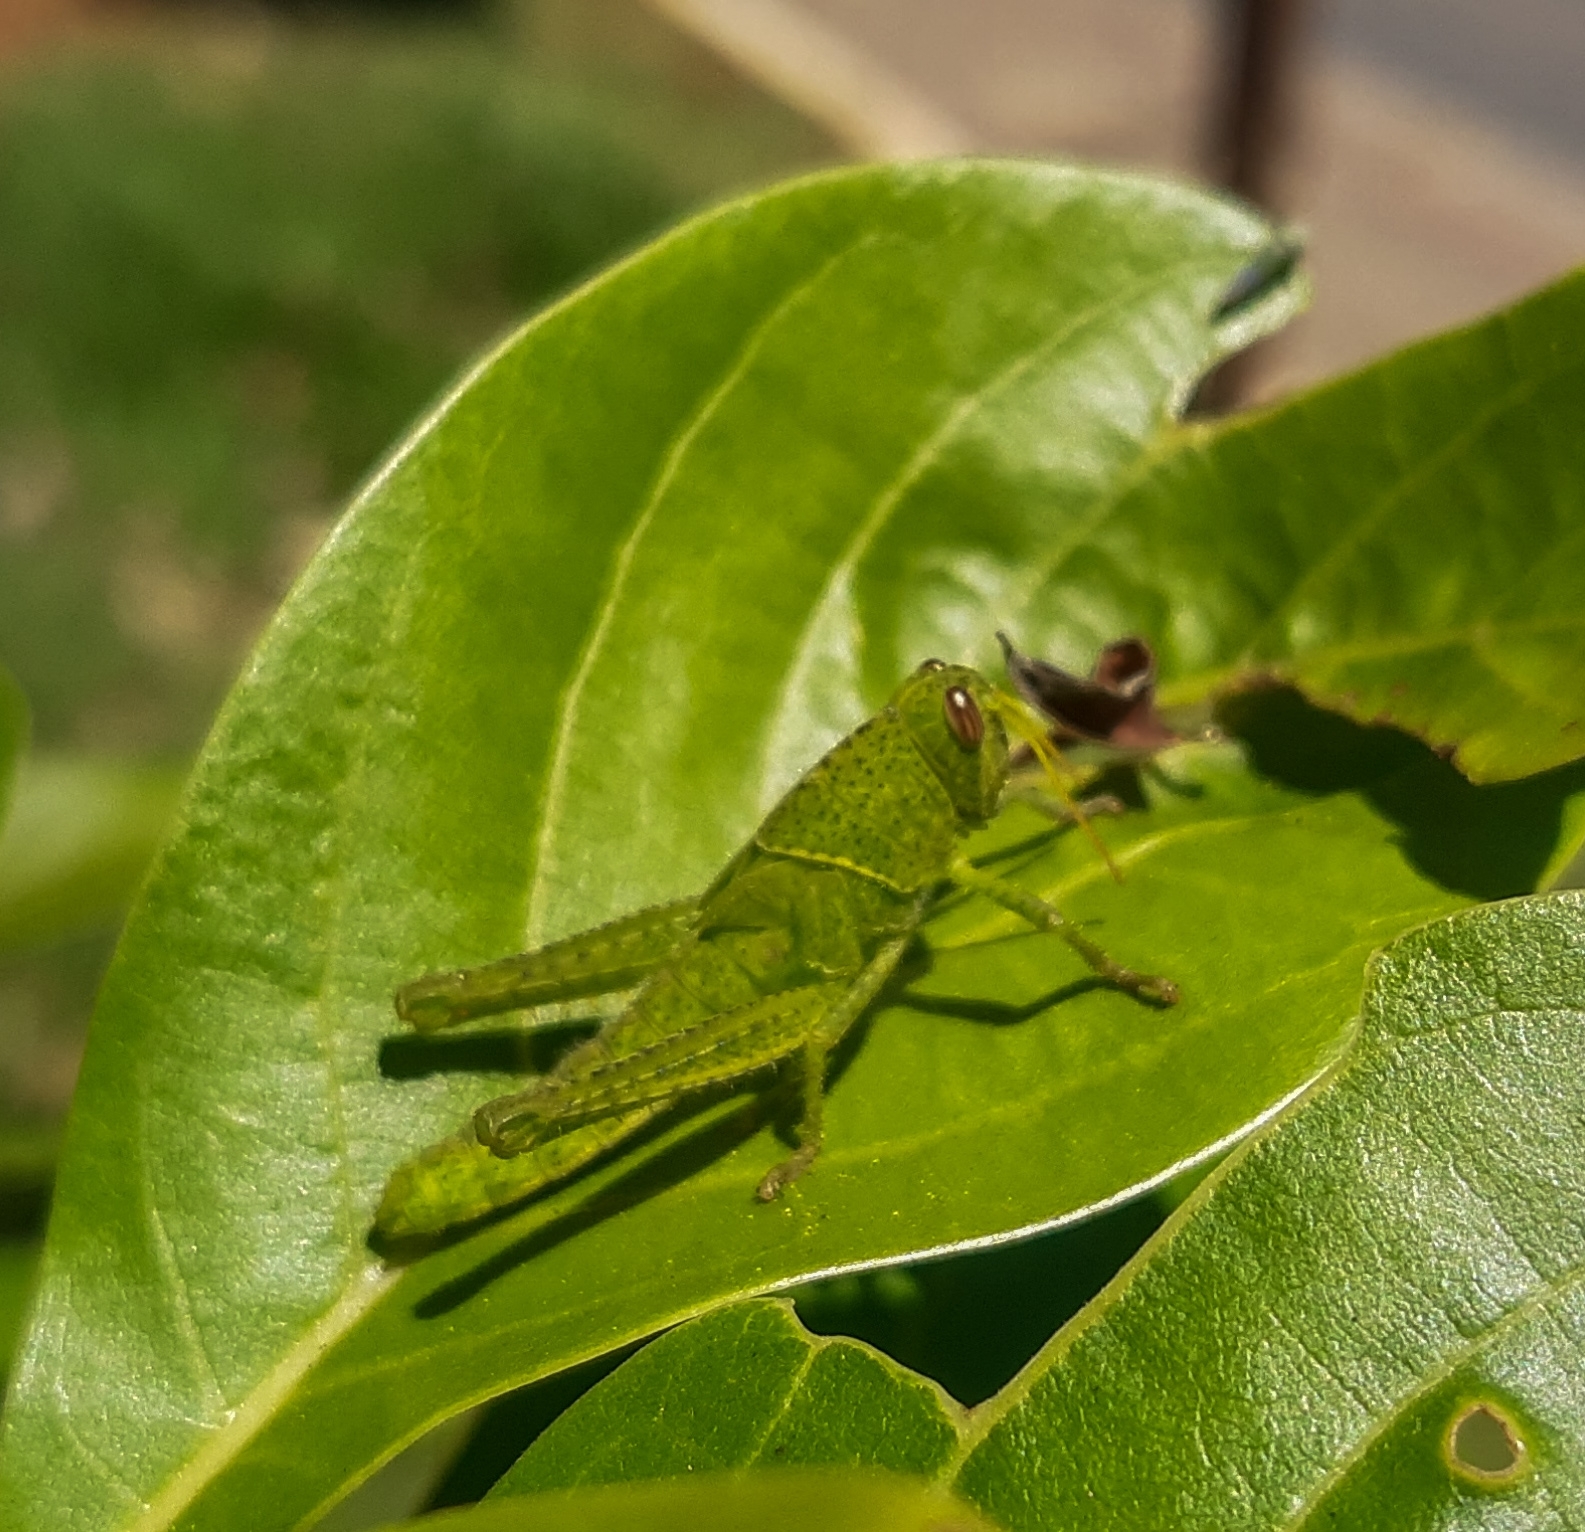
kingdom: Animalia
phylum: Arthropoda
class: Insecta
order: Orthoptera
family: Acrididae
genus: Schistocerca
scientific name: Schistocerca flavofasciata
